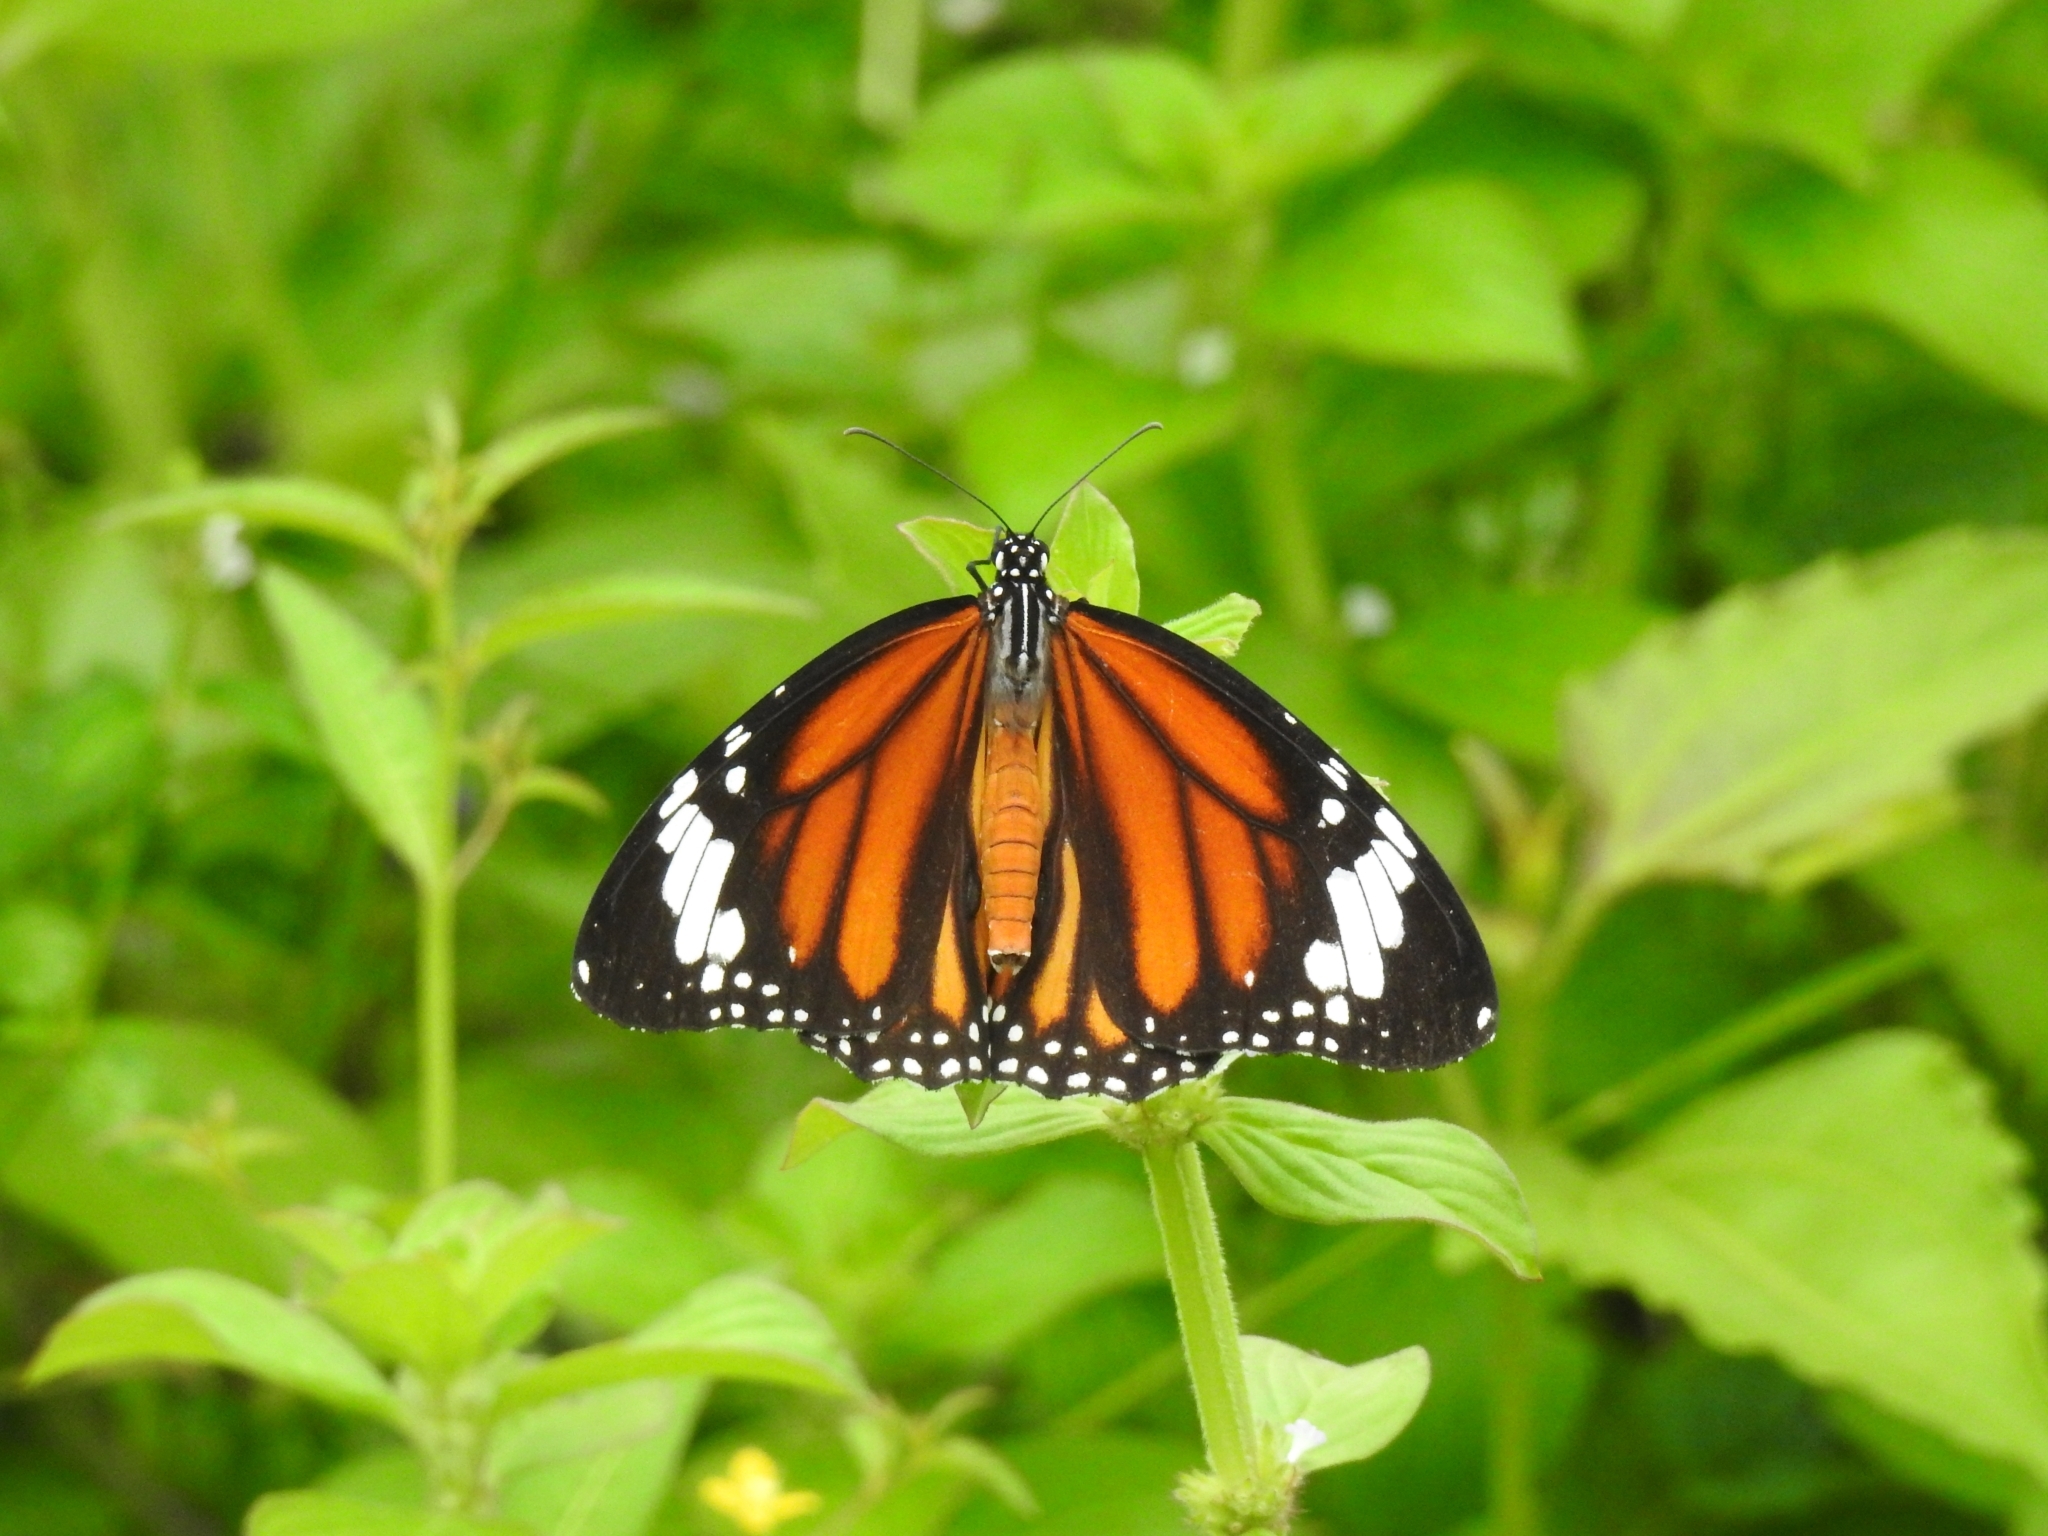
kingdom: Animalia
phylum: Arthropoda
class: Insecta
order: Lepidoptera
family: Nymphalidae
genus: Danaus
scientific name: Danaus genutia
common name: Common tiger butterfly
